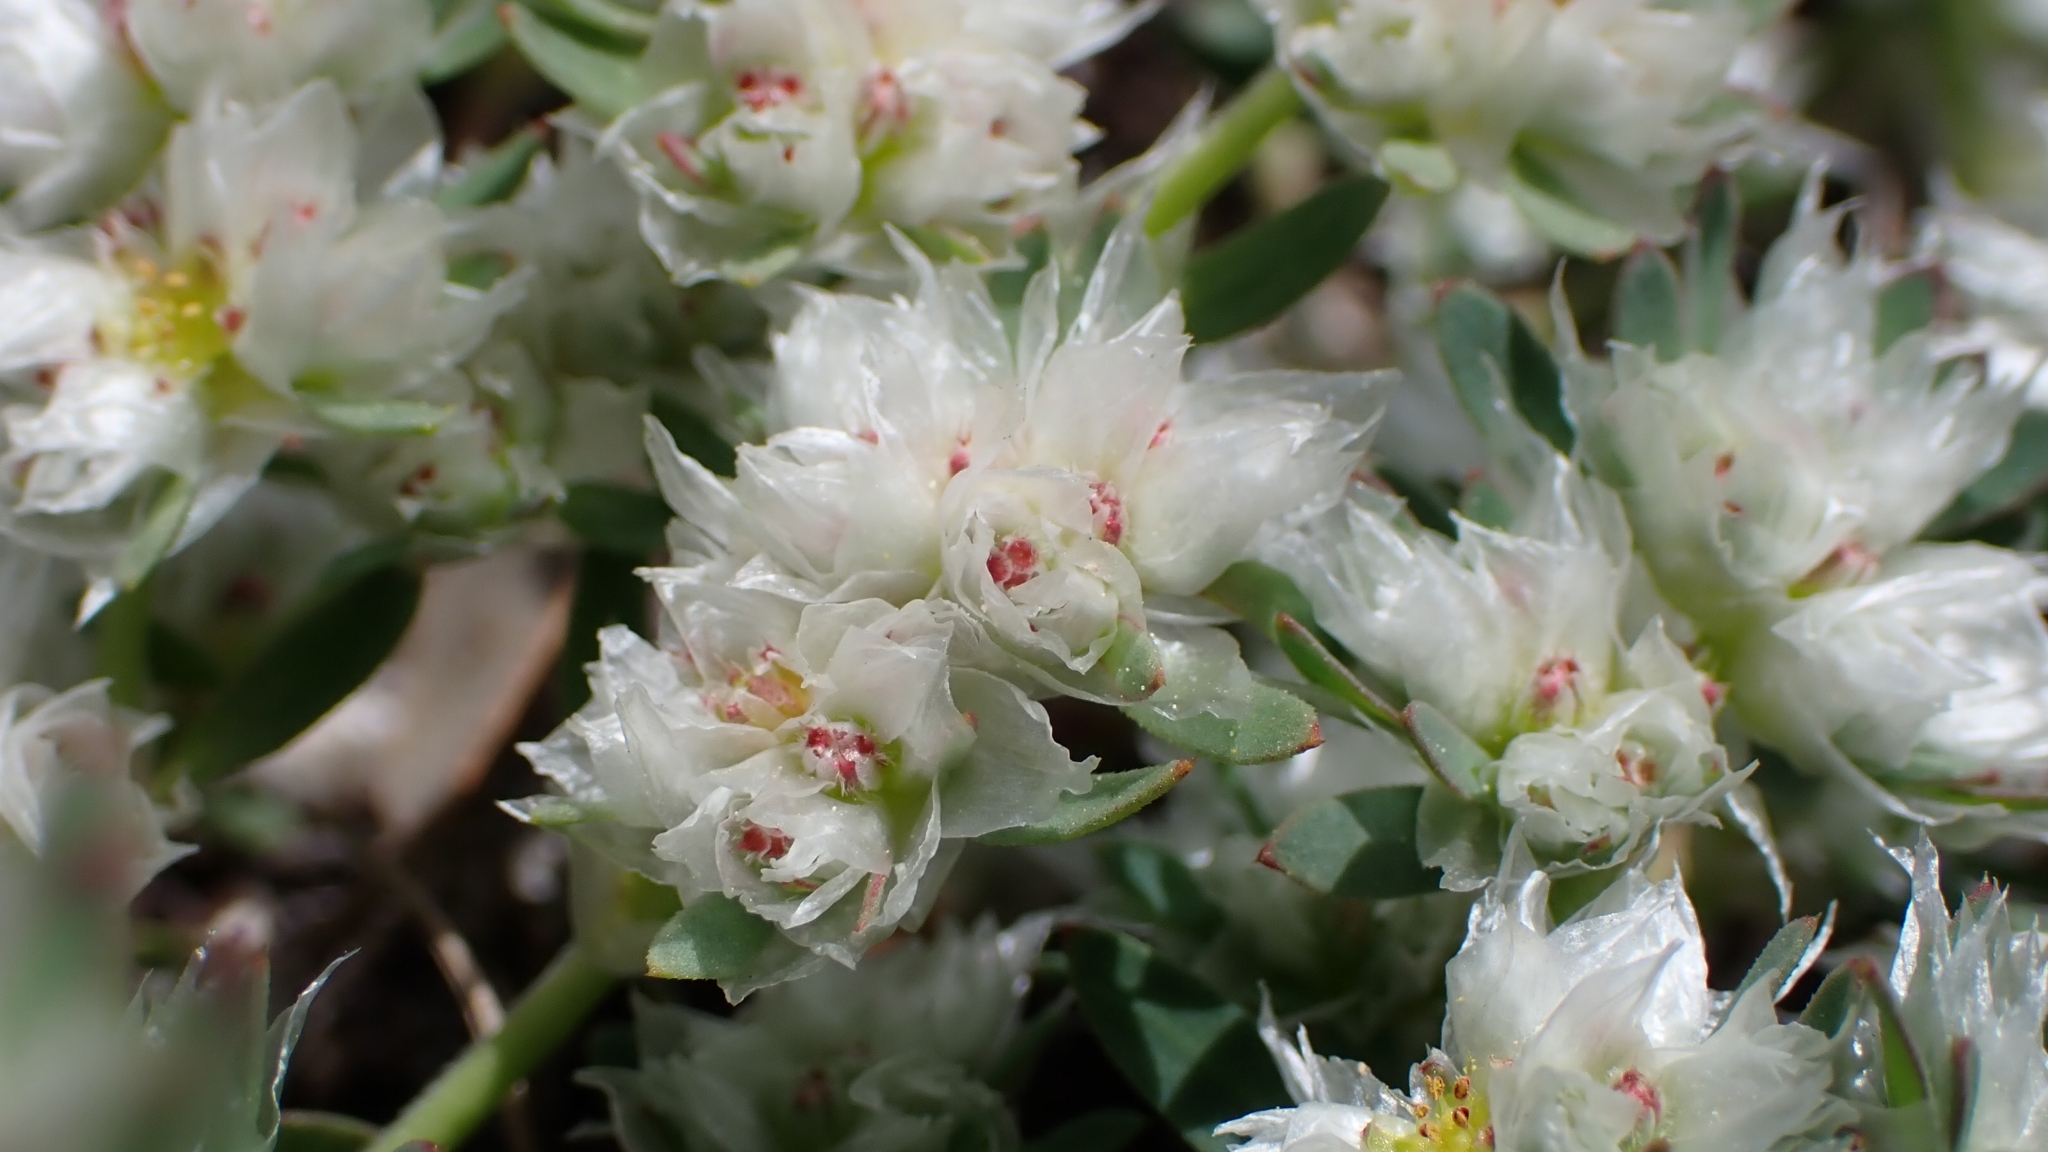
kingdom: Plantae
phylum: Tracheophyta
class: Magnoliopsida
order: Caryophyllales
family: Caryophyllaceae
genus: Paronychia
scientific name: Paronychia argentea
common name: Silver nailroot
